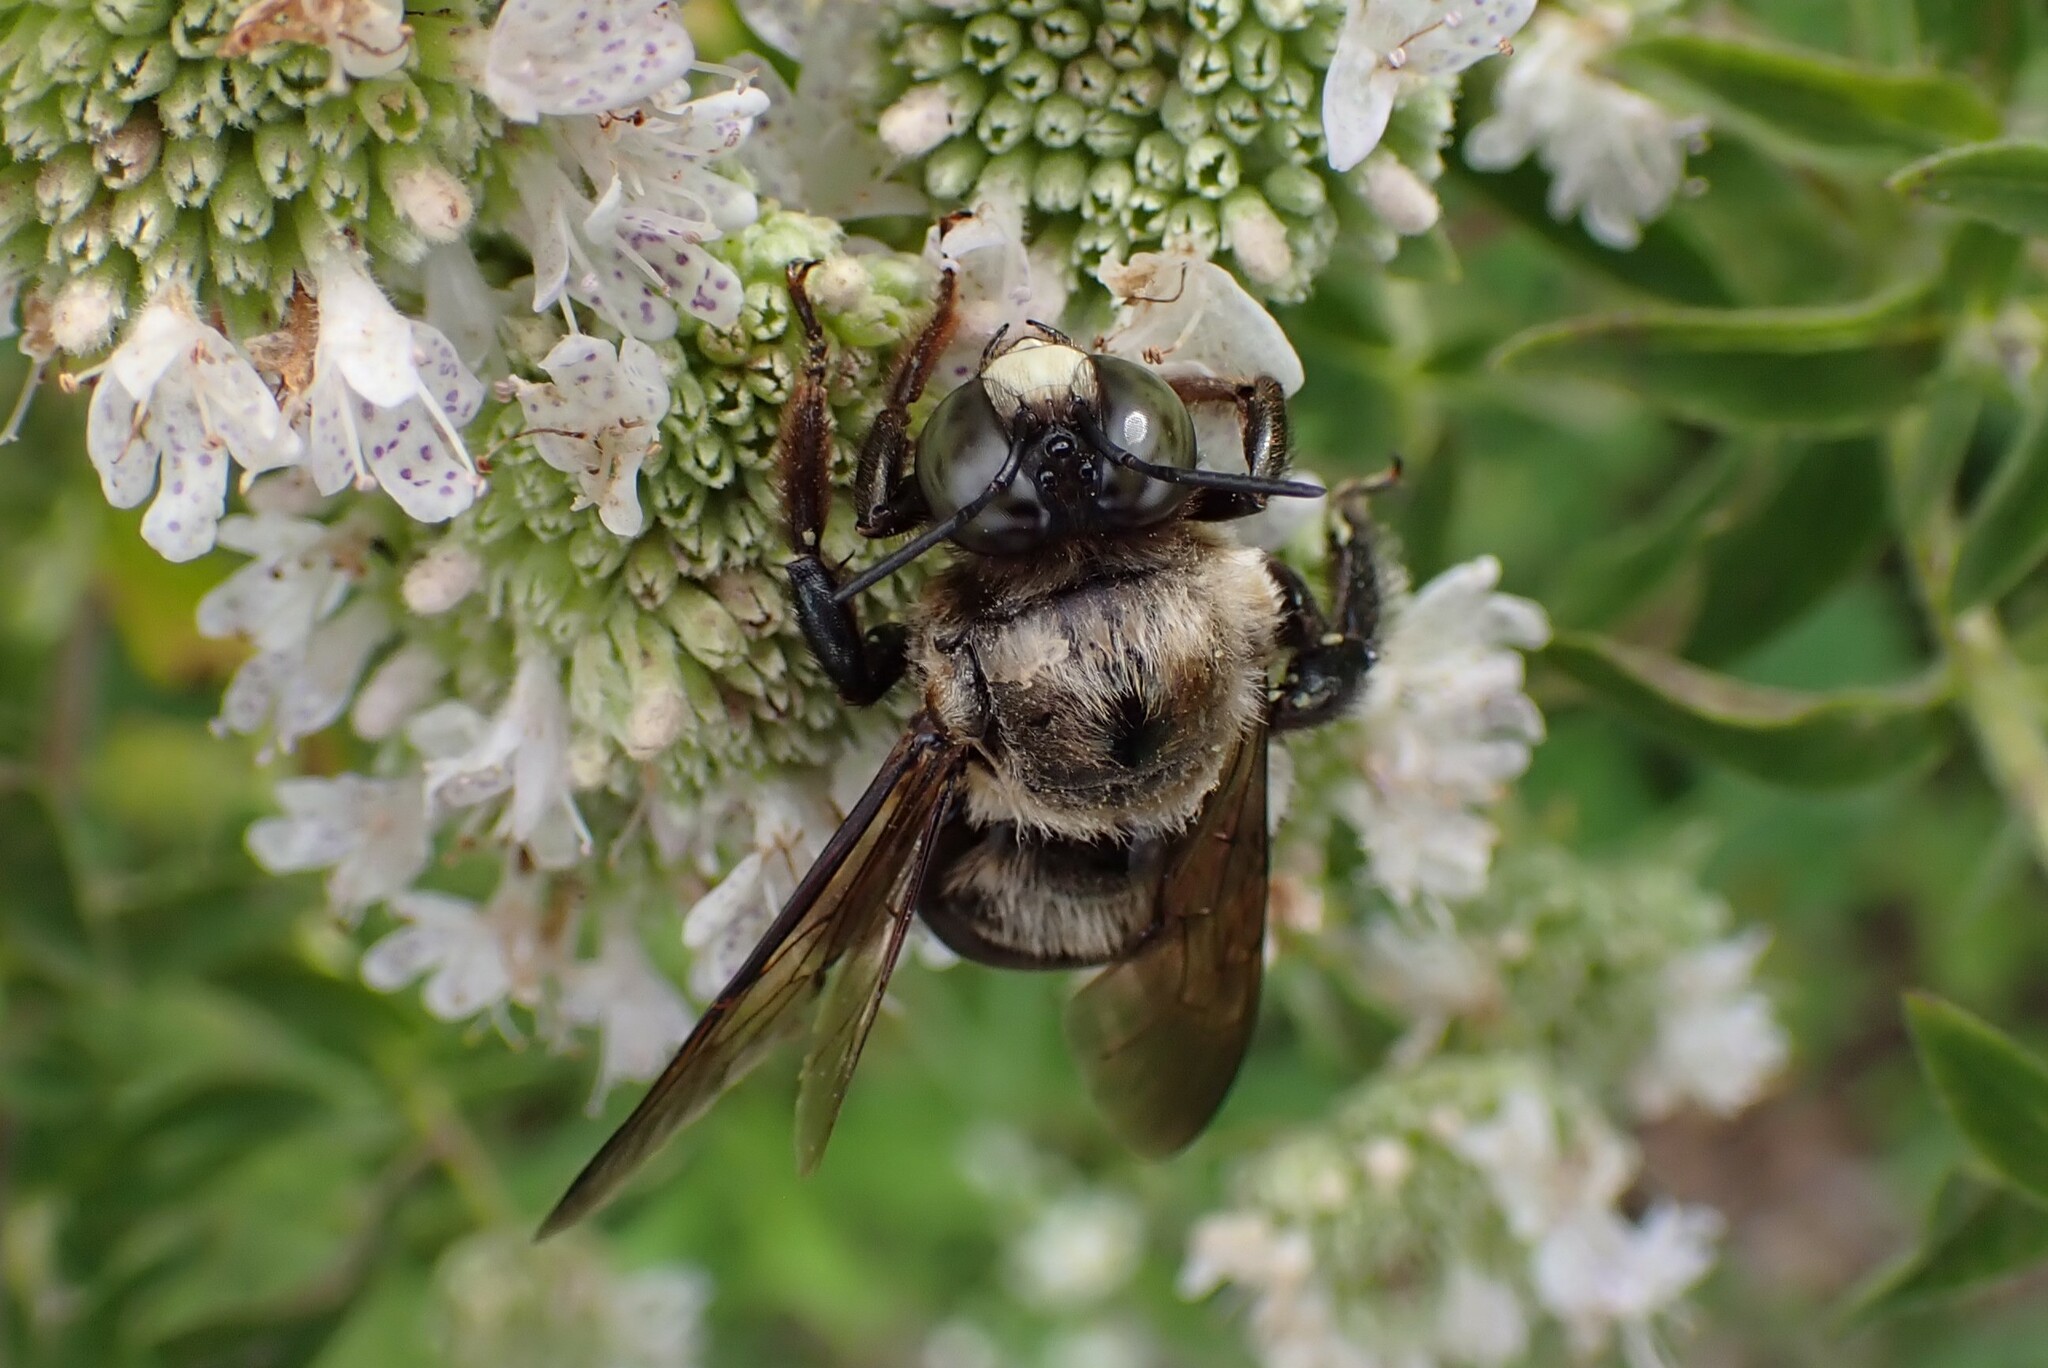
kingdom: Animalia
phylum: Arthropoda
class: Insecta
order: Hymenoptera
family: Apidae
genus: Xylocopa
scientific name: Xylocopa virginica
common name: Carpenter bee
